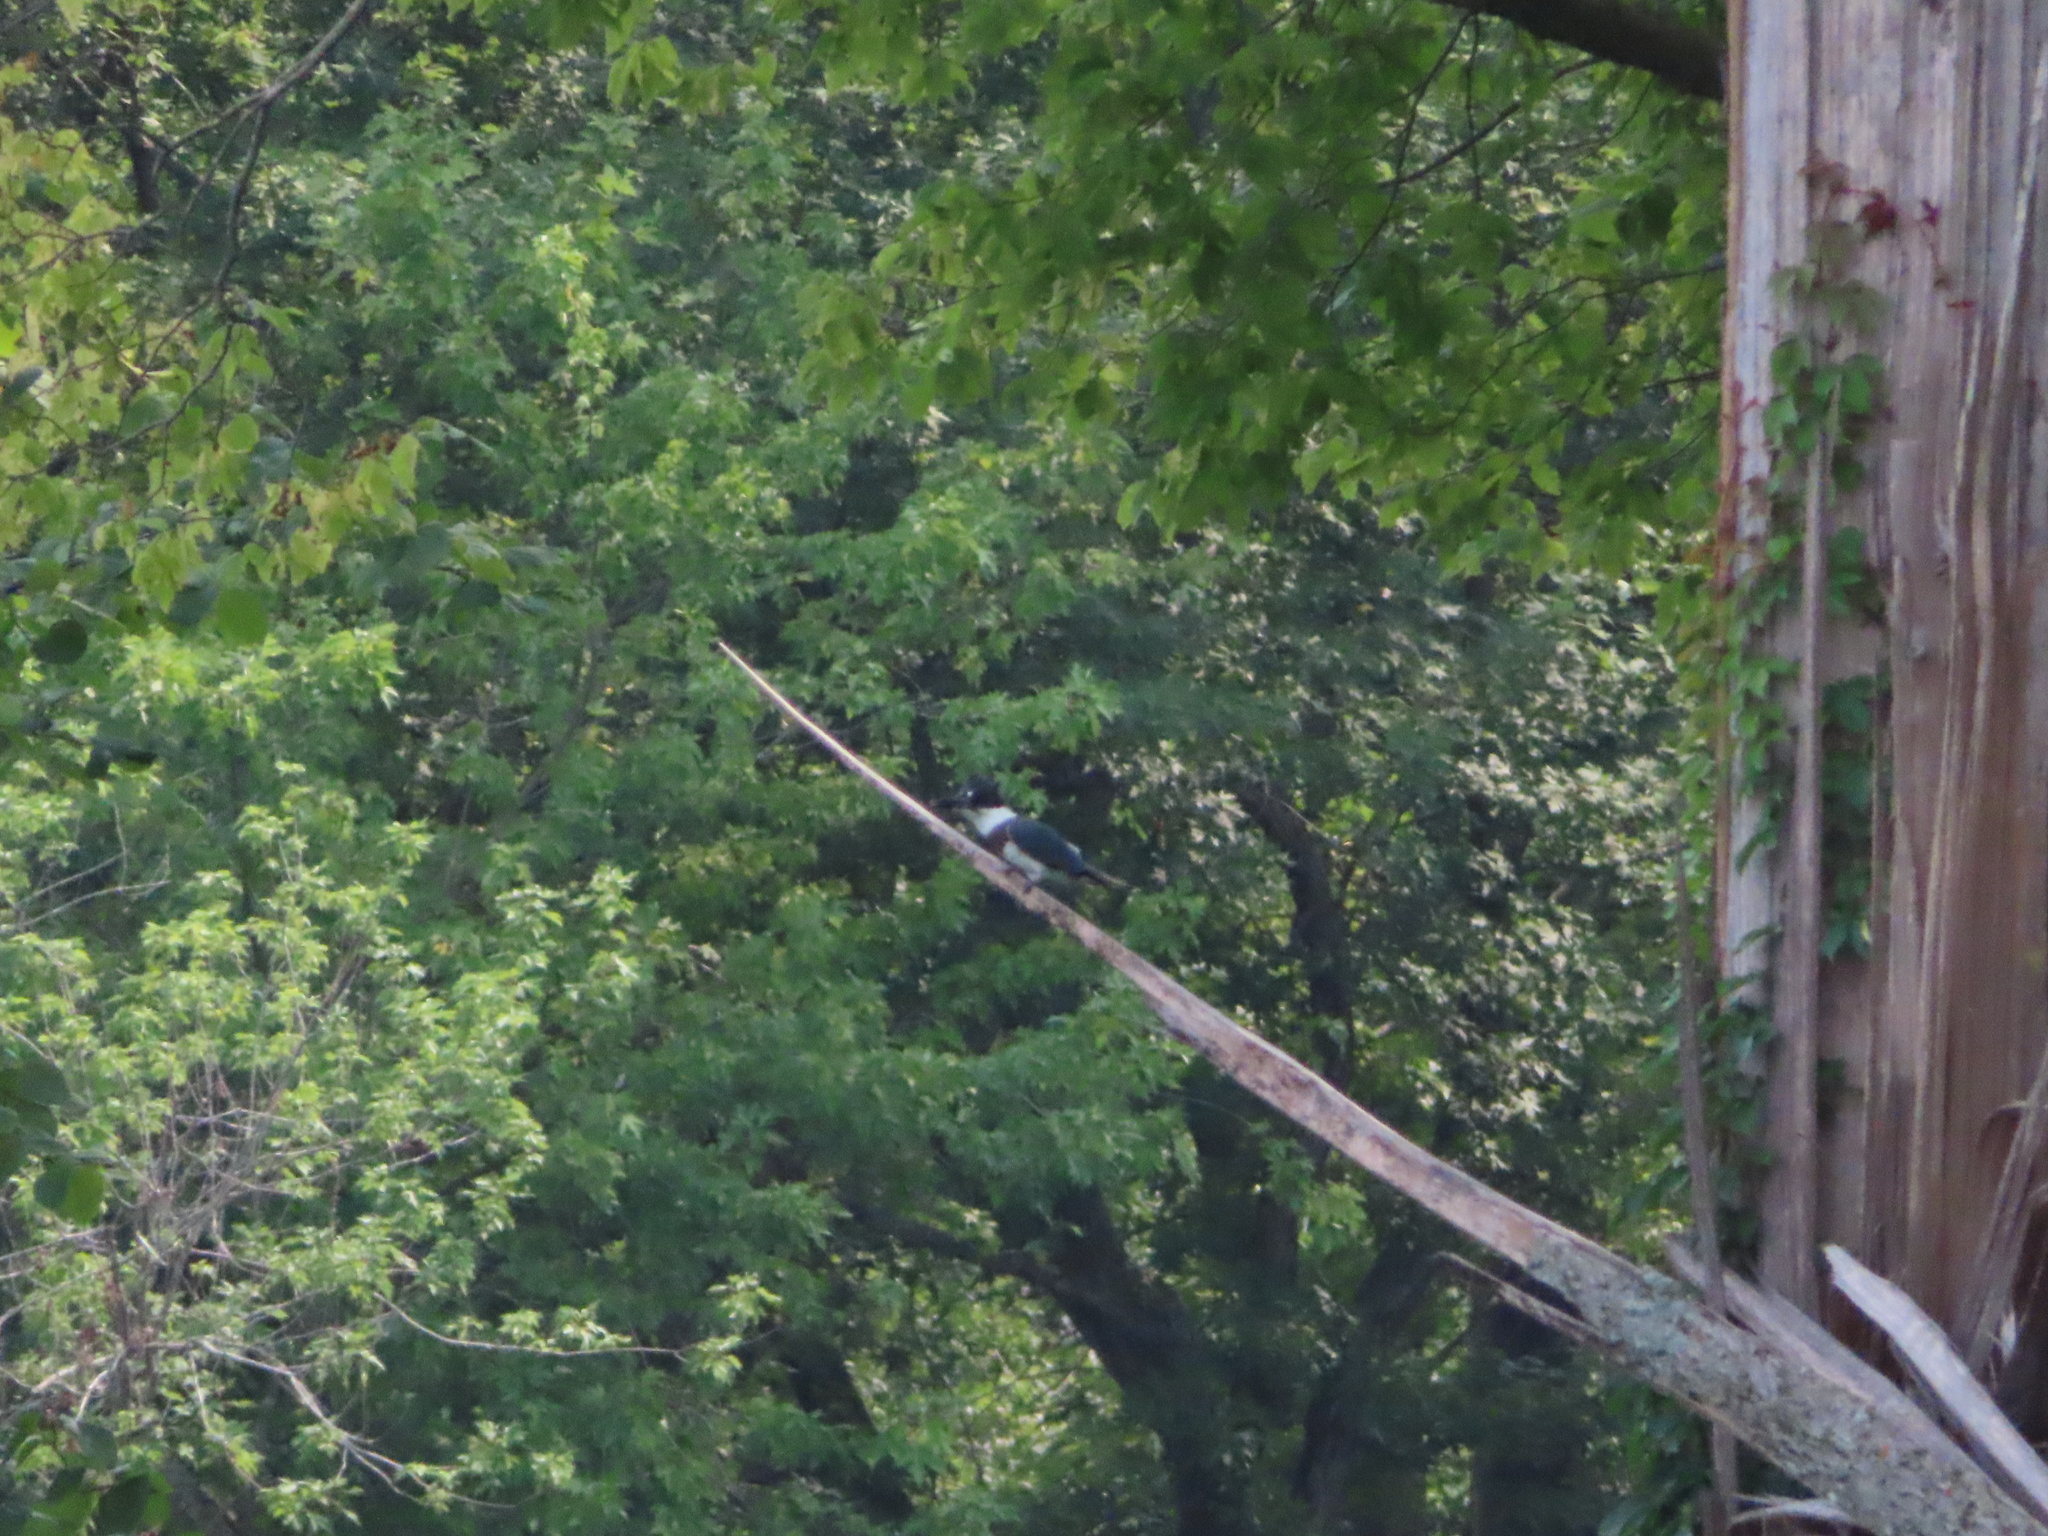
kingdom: Animalia
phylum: Chordata
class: Aves
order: Coraciiformes
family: Alcedinidae
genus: Megaceryle
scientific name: Megaceryle alcyon
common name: Belted kingfisher
